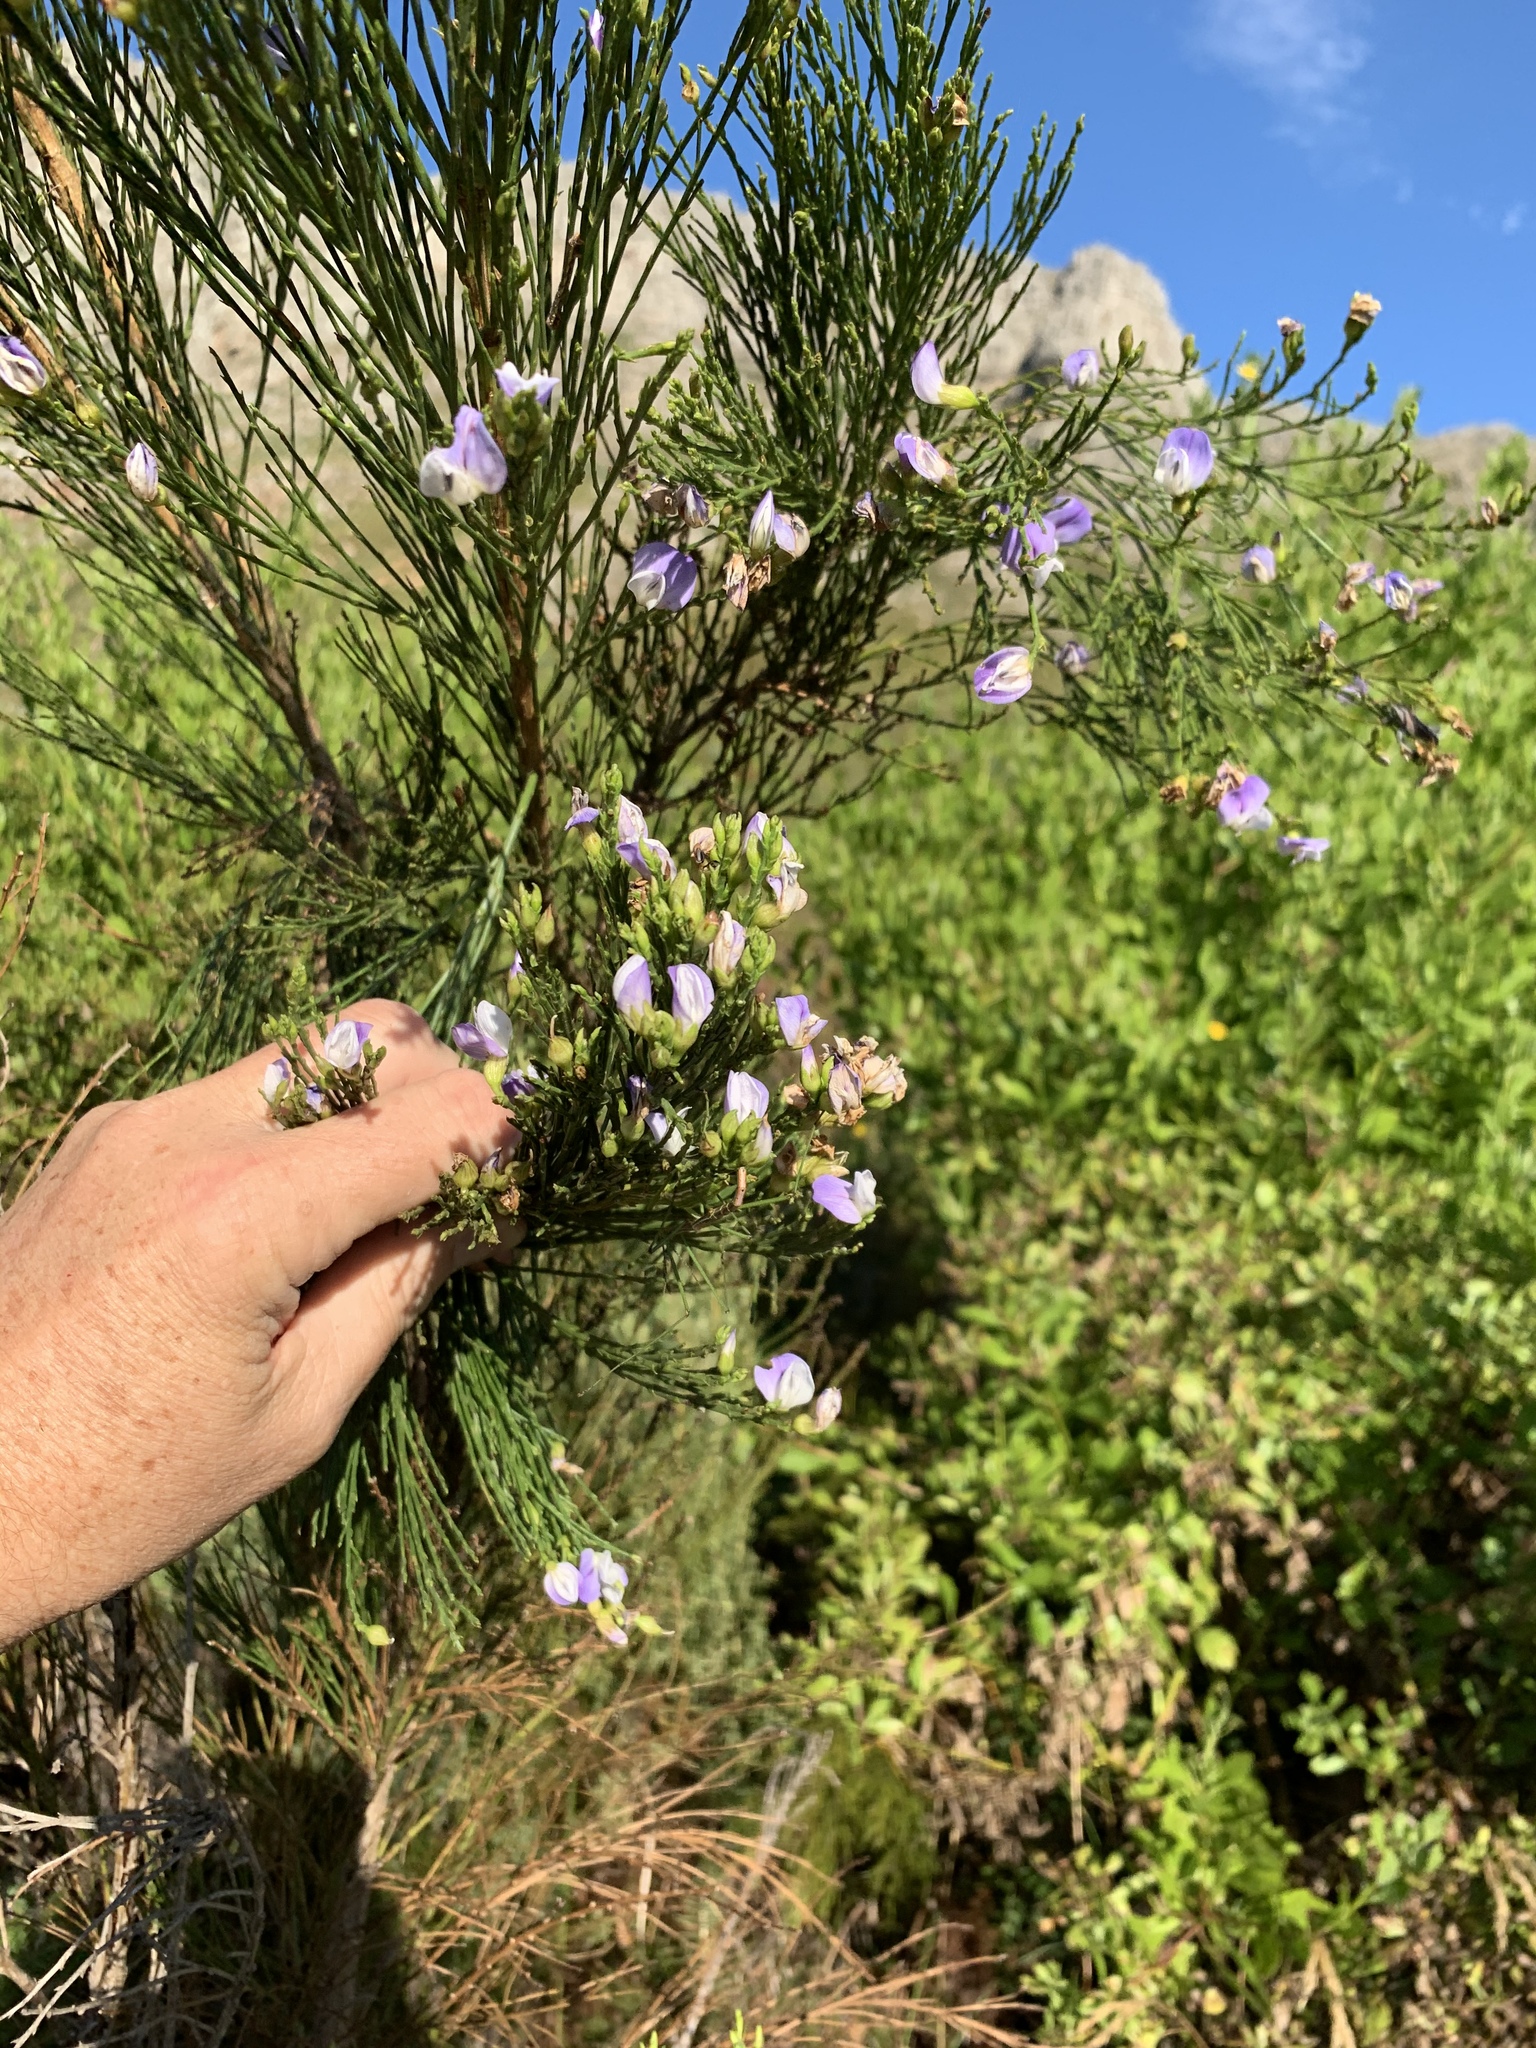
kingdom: Plantae
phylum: Tracheophyta
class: Magnoliopsida
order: Fabales
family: Fabaceae
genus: Psoralea
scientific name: Psoralea usitata
